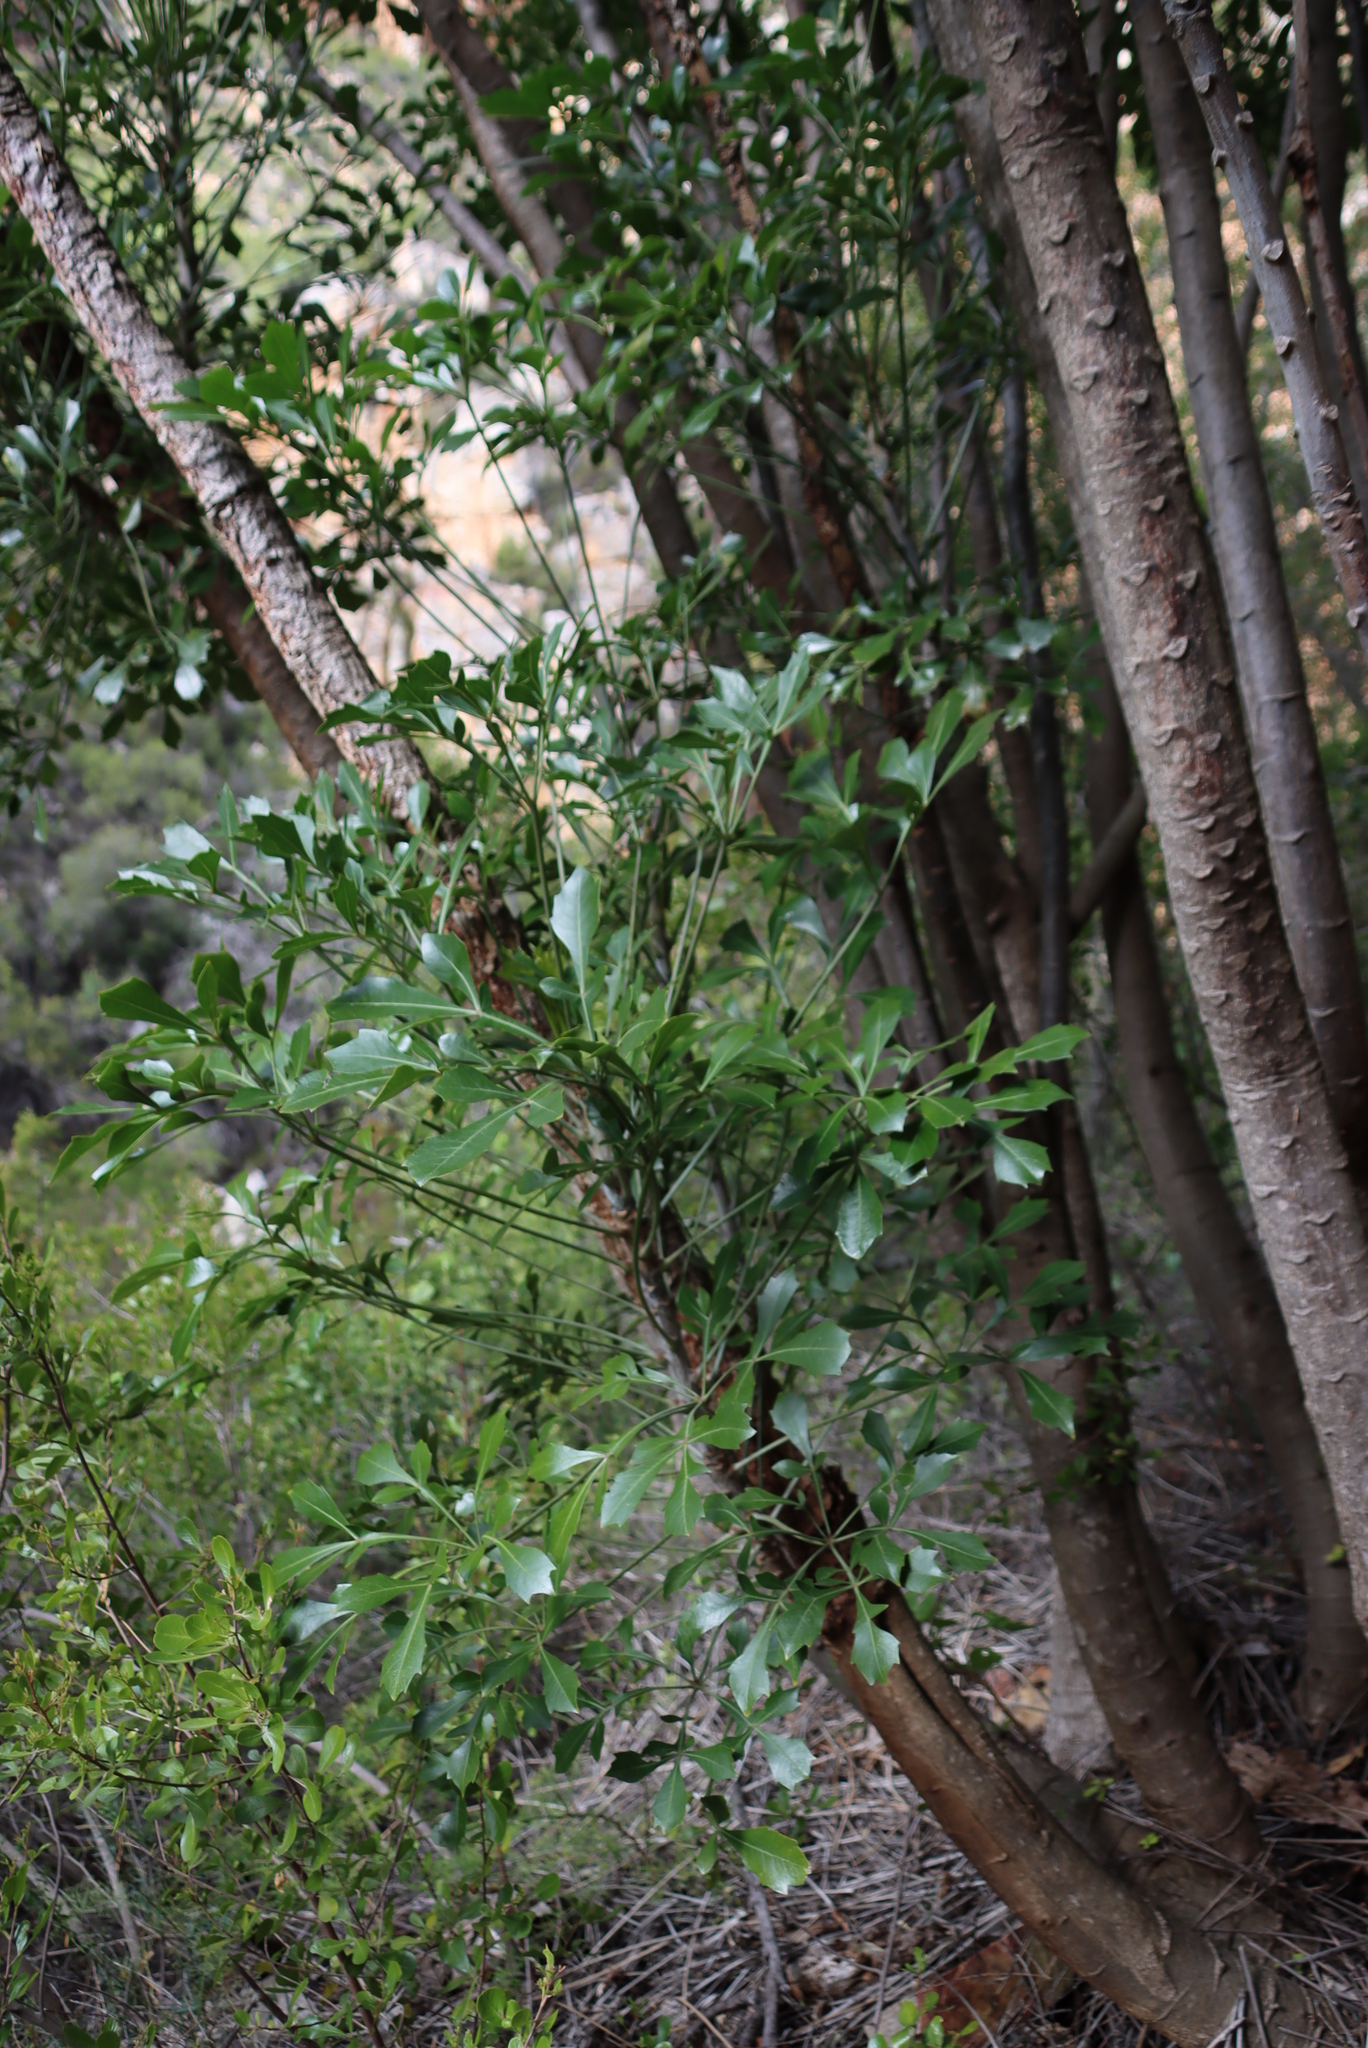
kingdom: Plantae
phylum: Tracheophyta
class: Magnoliopsida
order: Apiales
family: Araliaceae
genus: Cussonia
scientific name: Cussonia spicata
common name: Common cabbagetree
